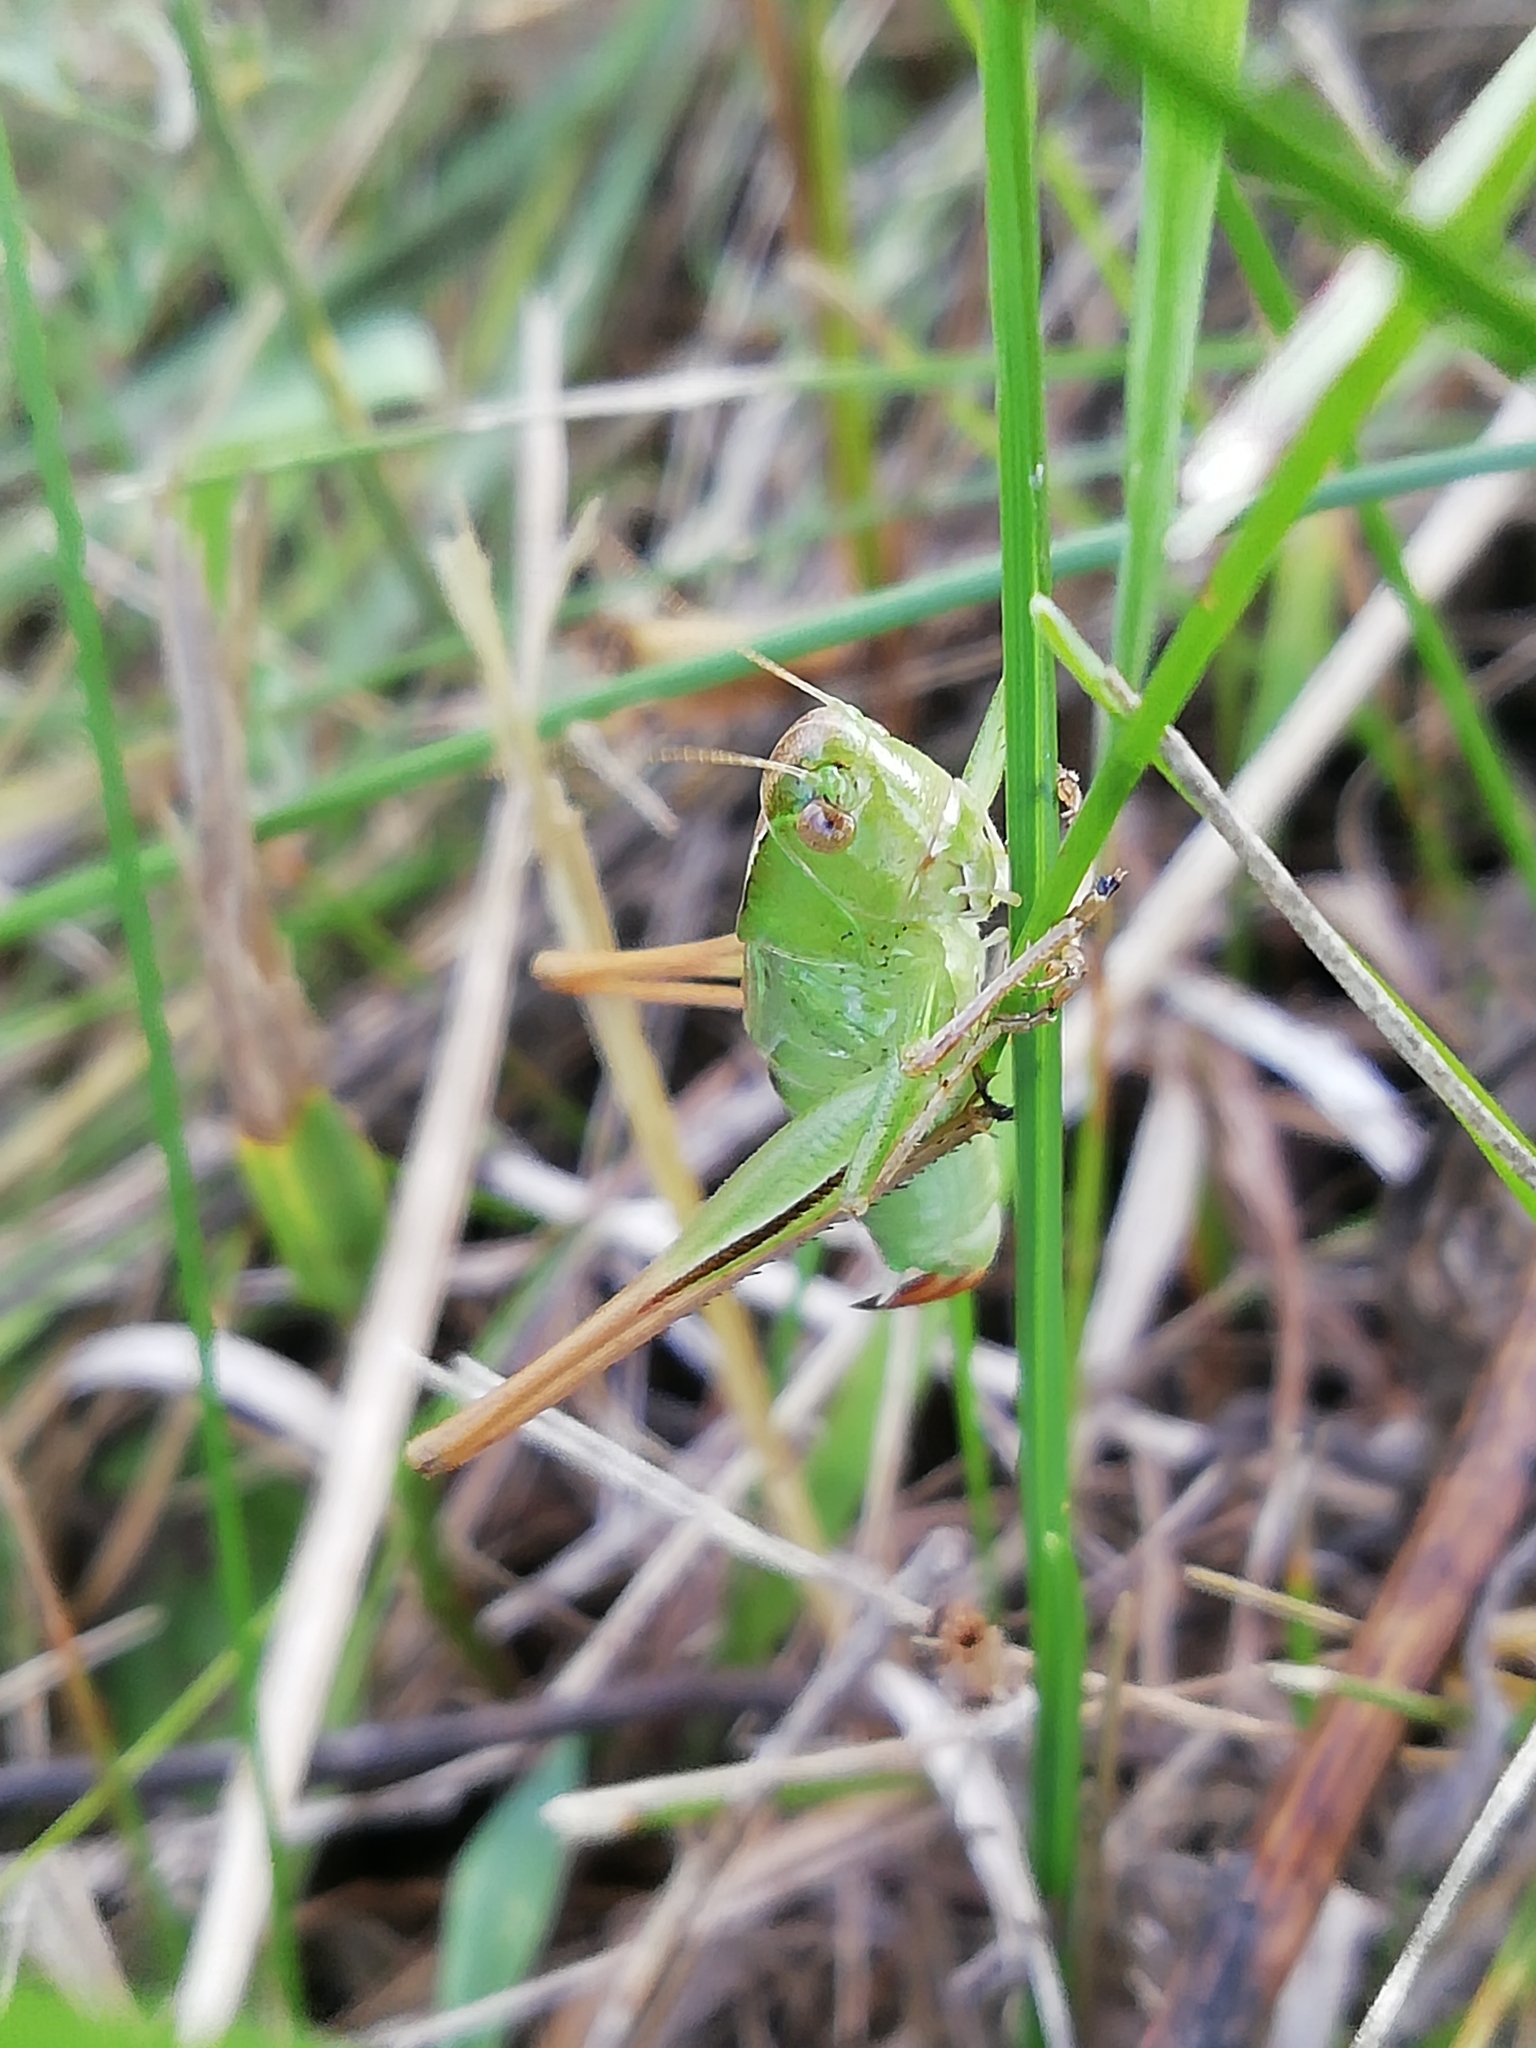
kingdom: Animalia
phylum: Arthropoda
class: Insecta
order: Orthoptera
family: Tettigoniidae
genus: Bicolorana
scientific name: Bicolorana bicolor
